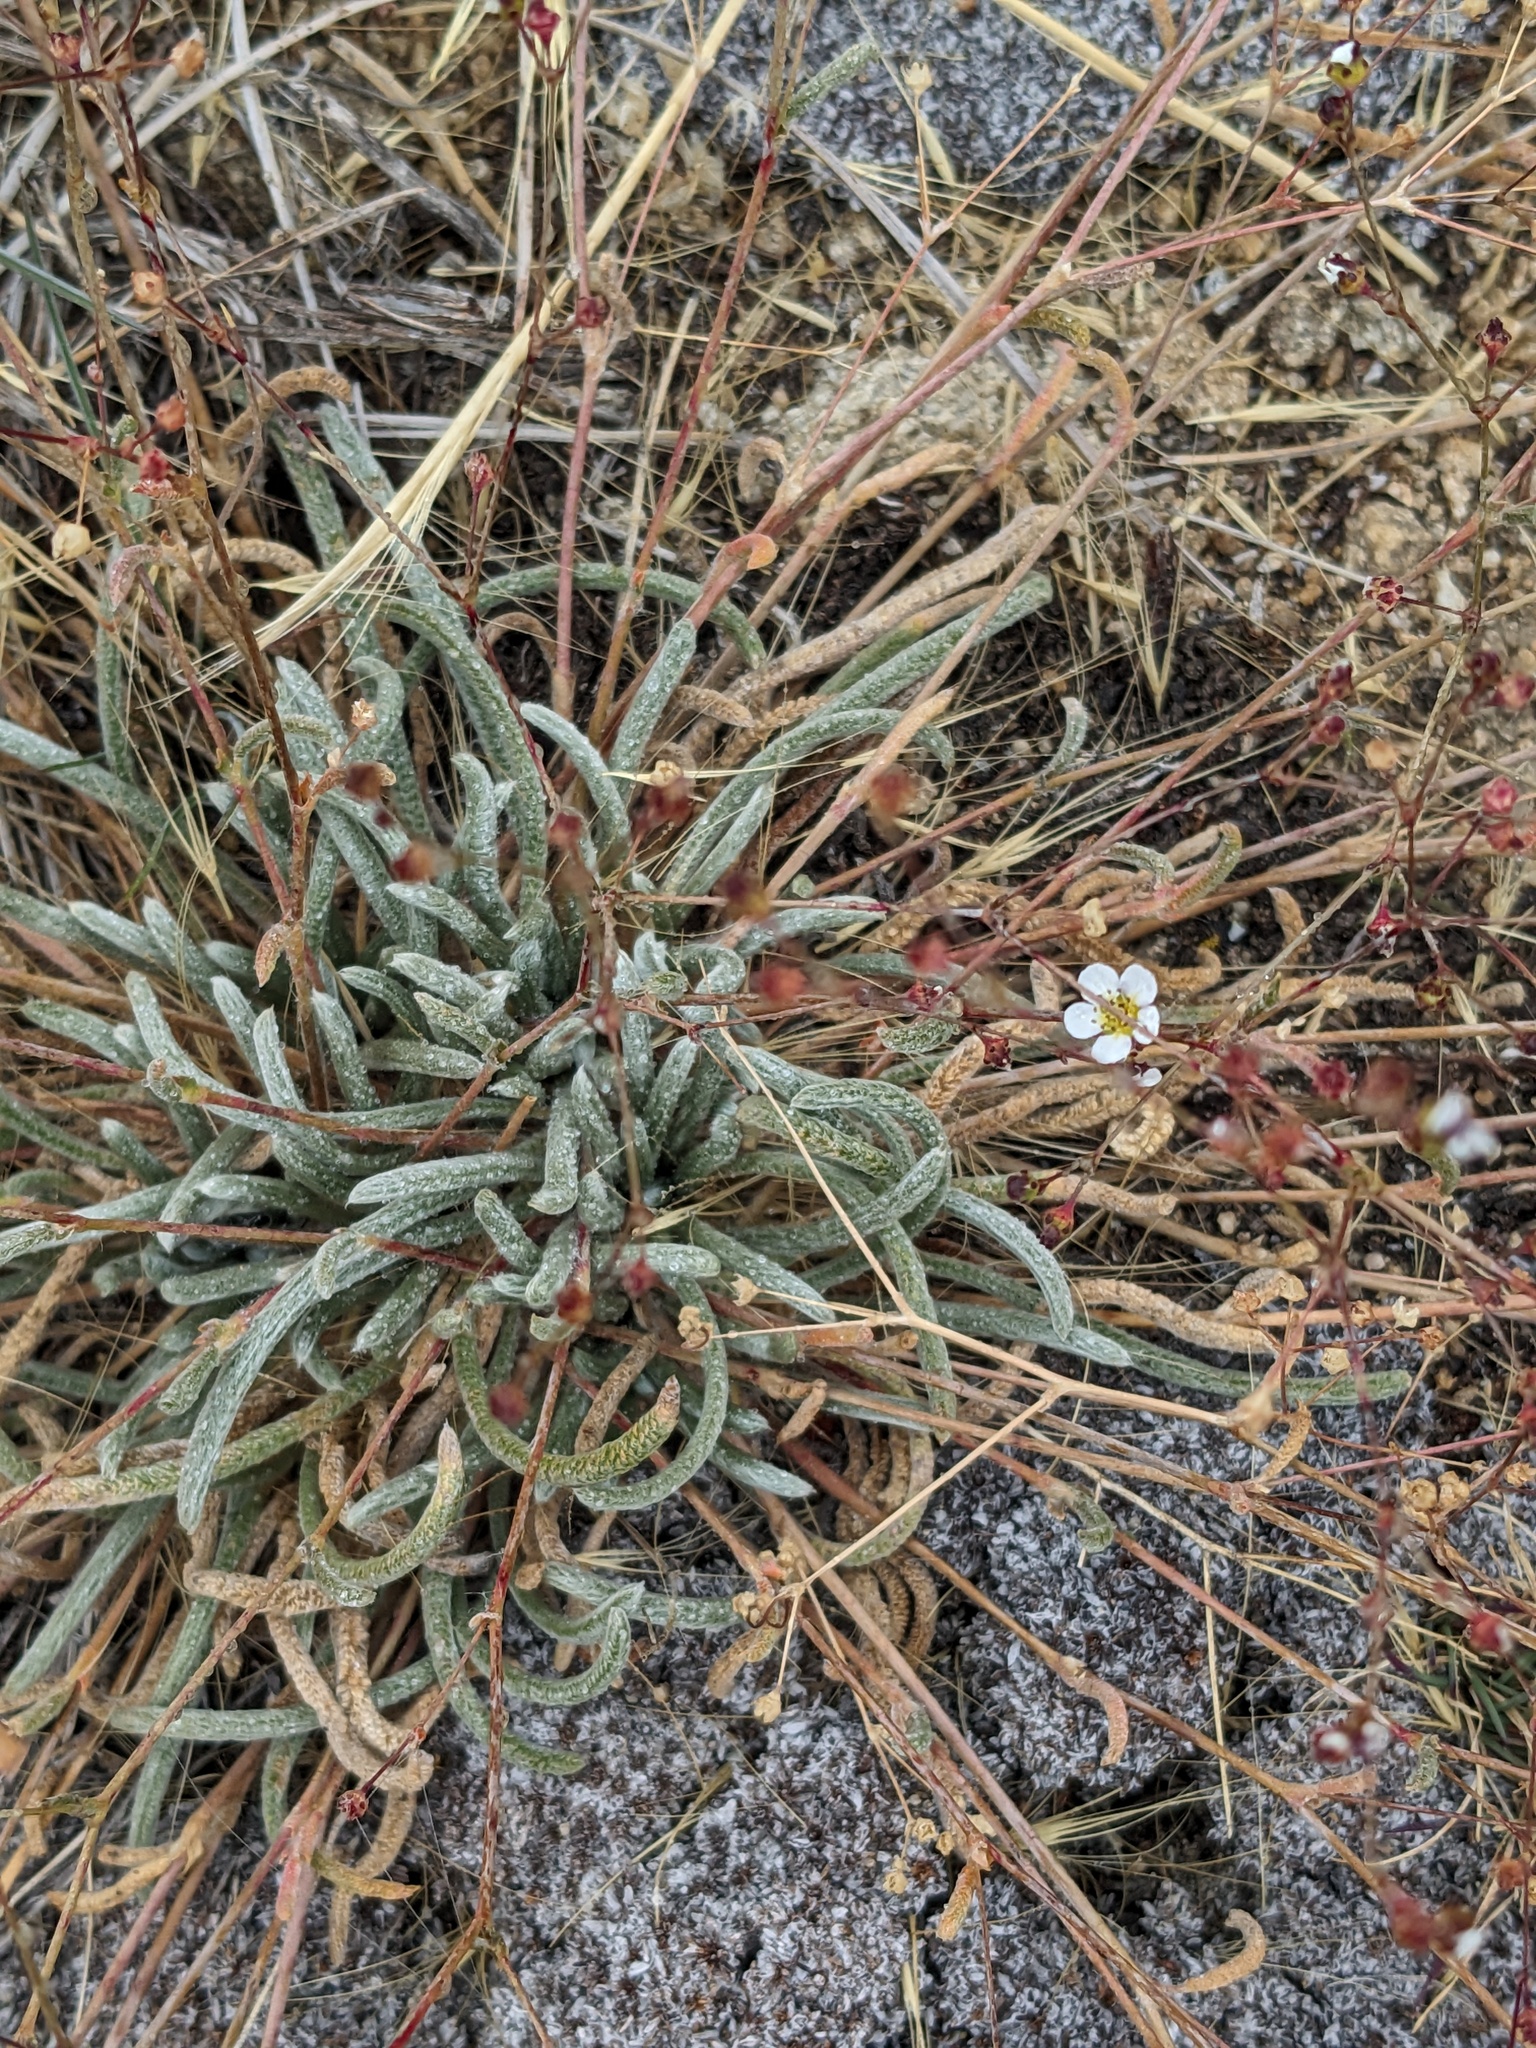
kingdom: Plantae
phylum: Tracheophyta
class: Magnoliopsida
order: Rosales
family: Rosaceae
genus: Potentilla
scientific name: Potentilla santolinoides
